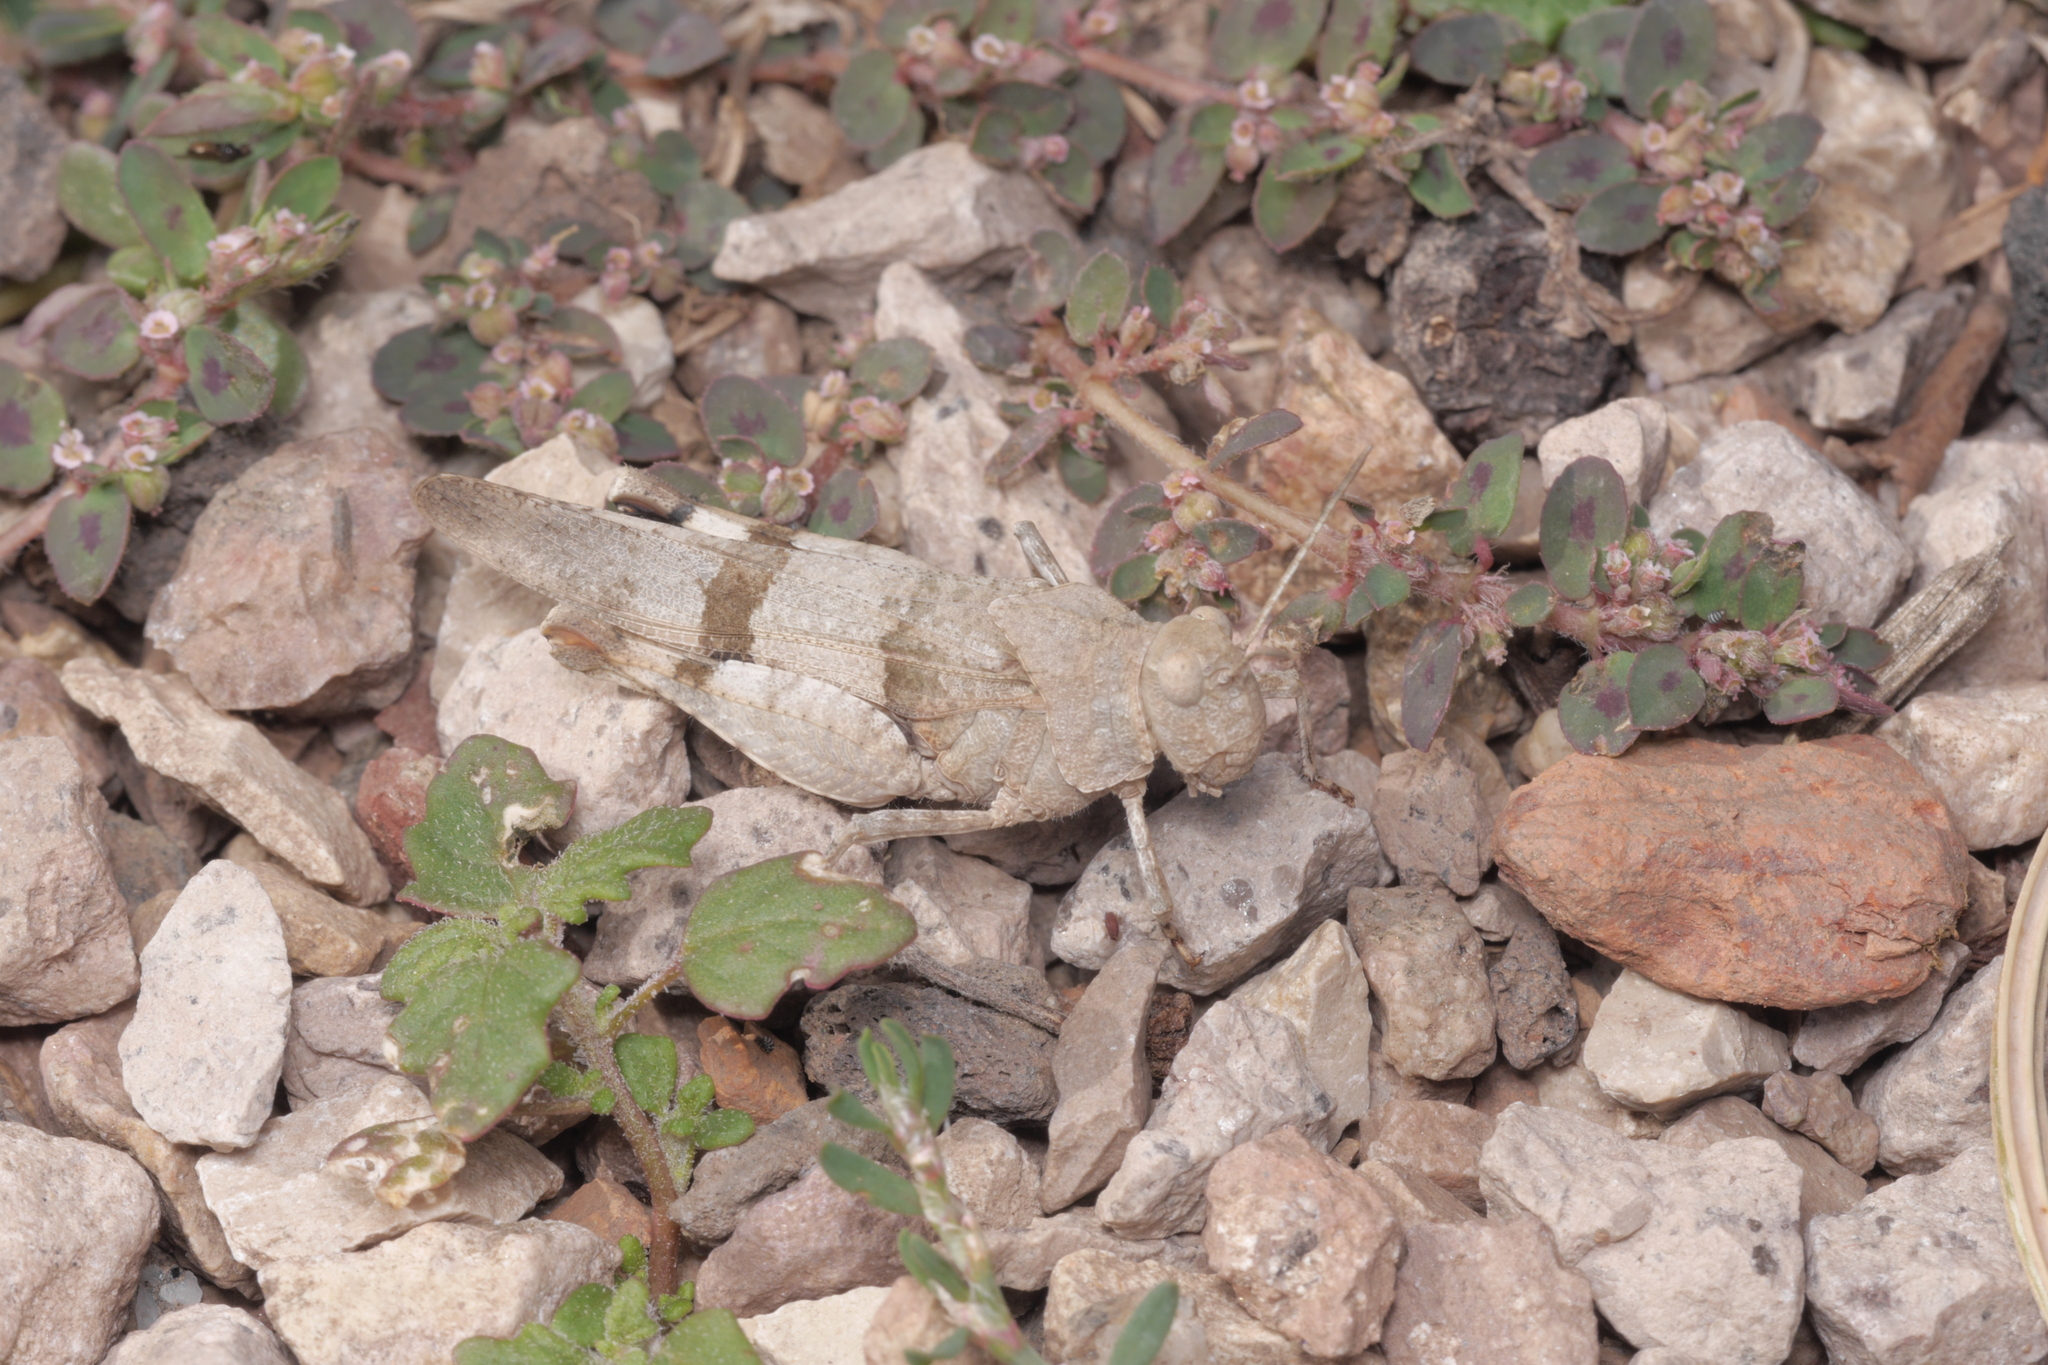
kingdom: Animalia
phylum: Arthropoda
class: Insecta
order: Orthoptera
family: Acrididae
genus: Oedipoda
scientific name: Oedipoda caerulescens
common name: Blue-winged grasshopper
